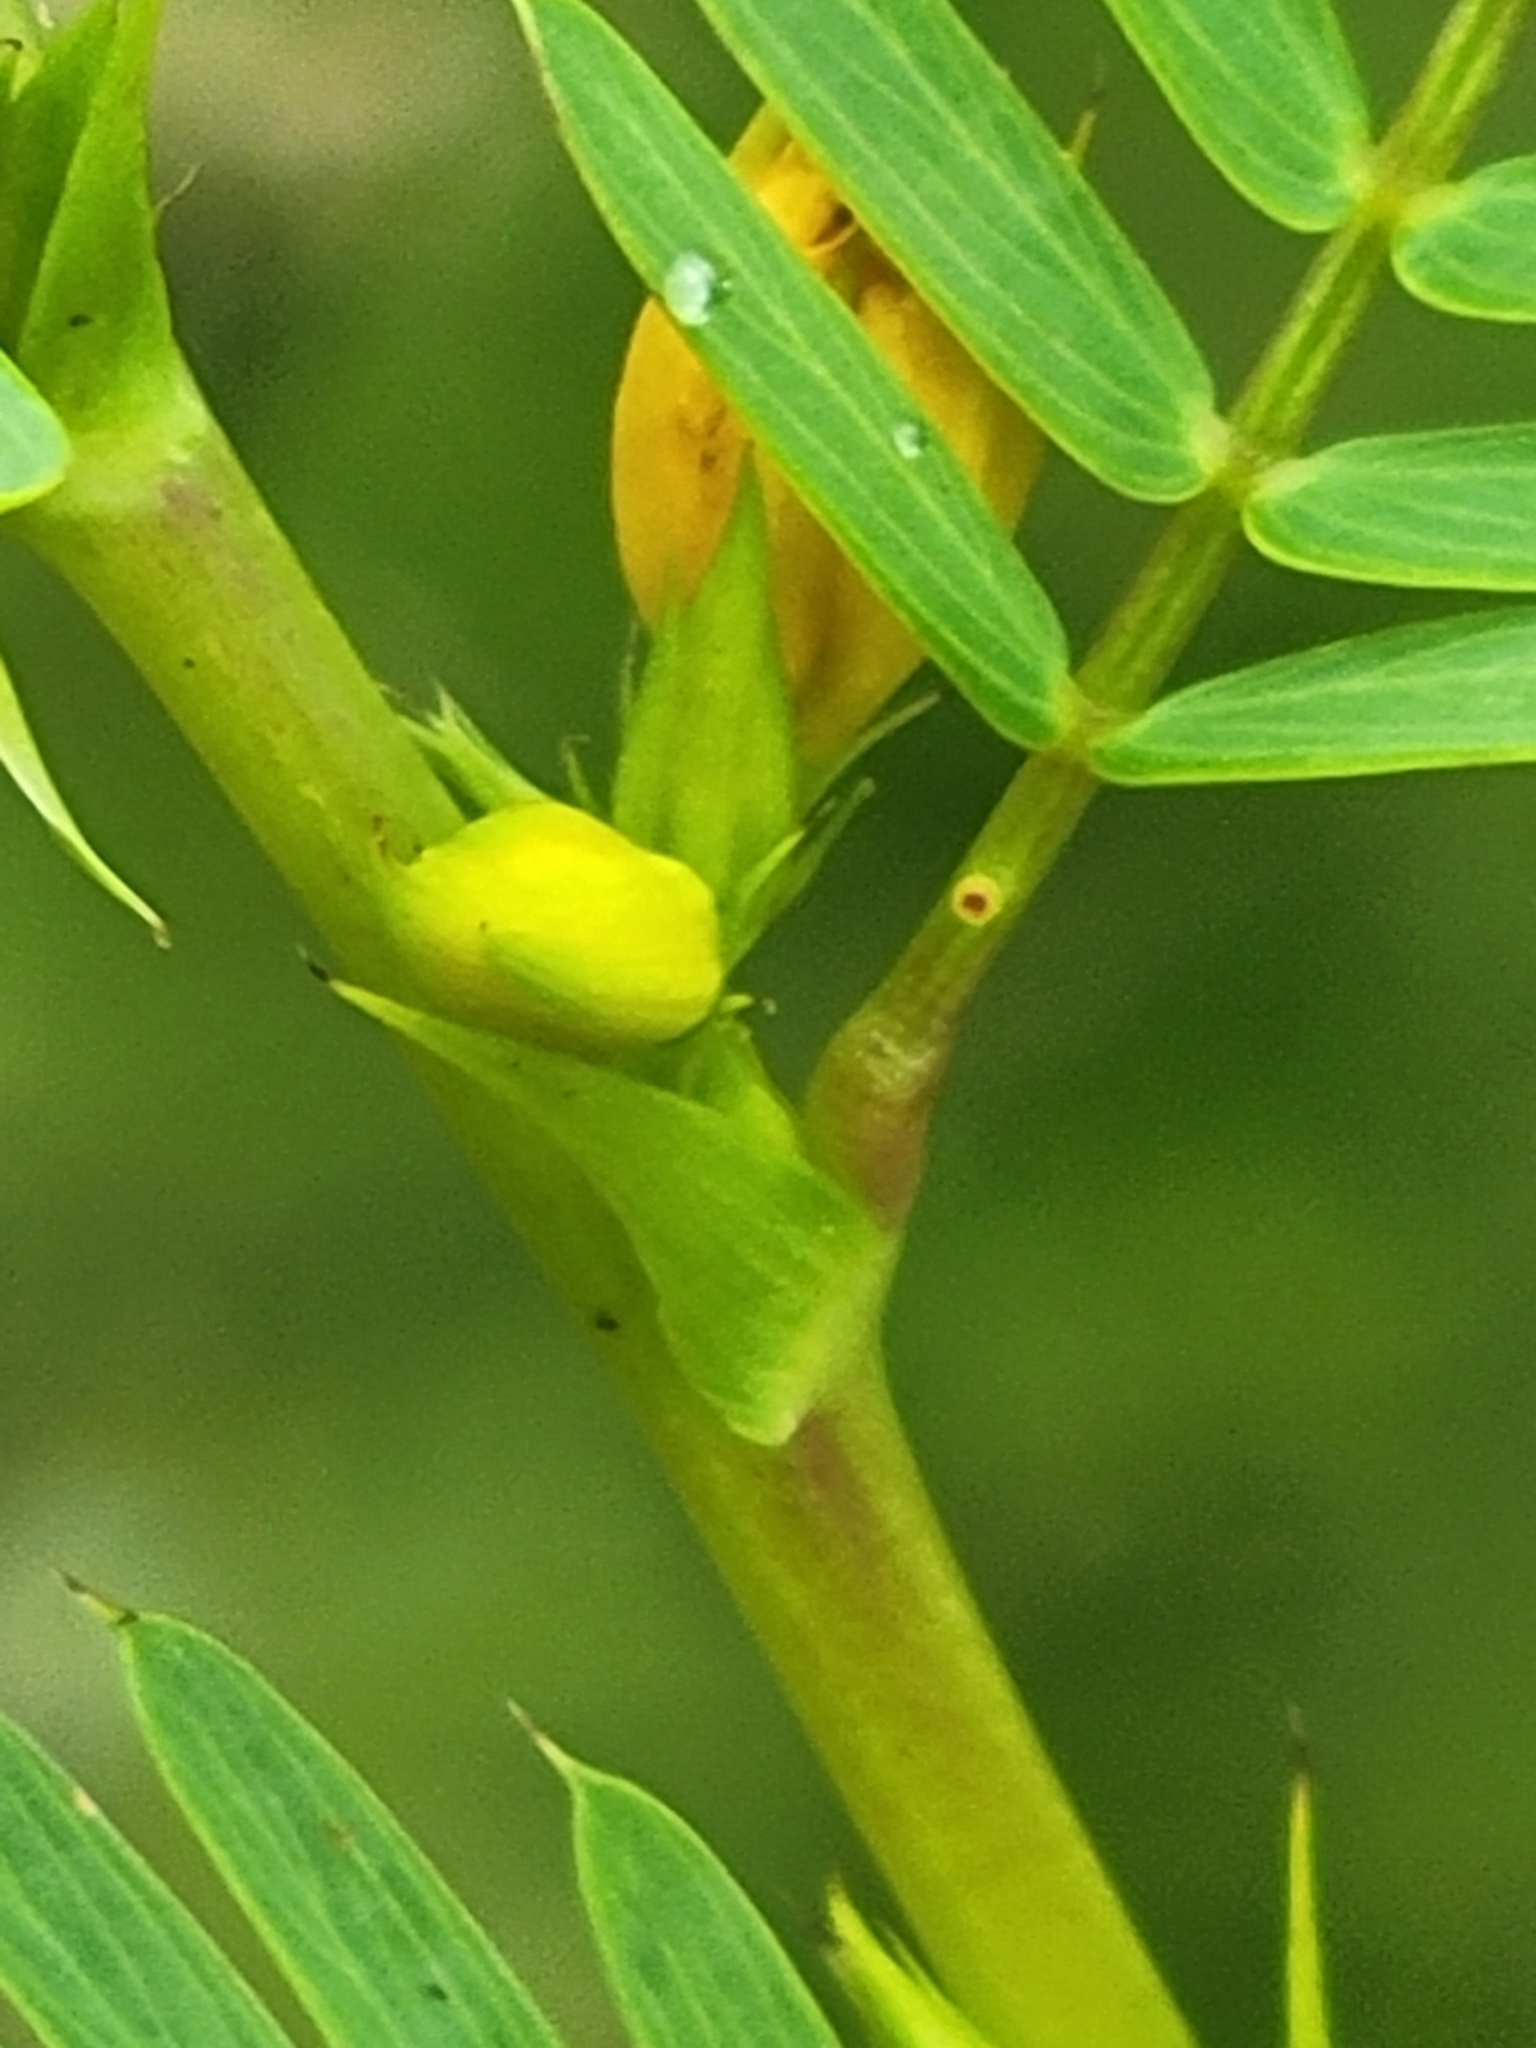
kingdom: Plantae
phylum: Tracheophyta
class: Magnoliopsida
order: Fabales
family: Fabaceae
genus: Chamaecrista
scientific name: Chamaecrista nictitans
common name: Sensitive cassia
